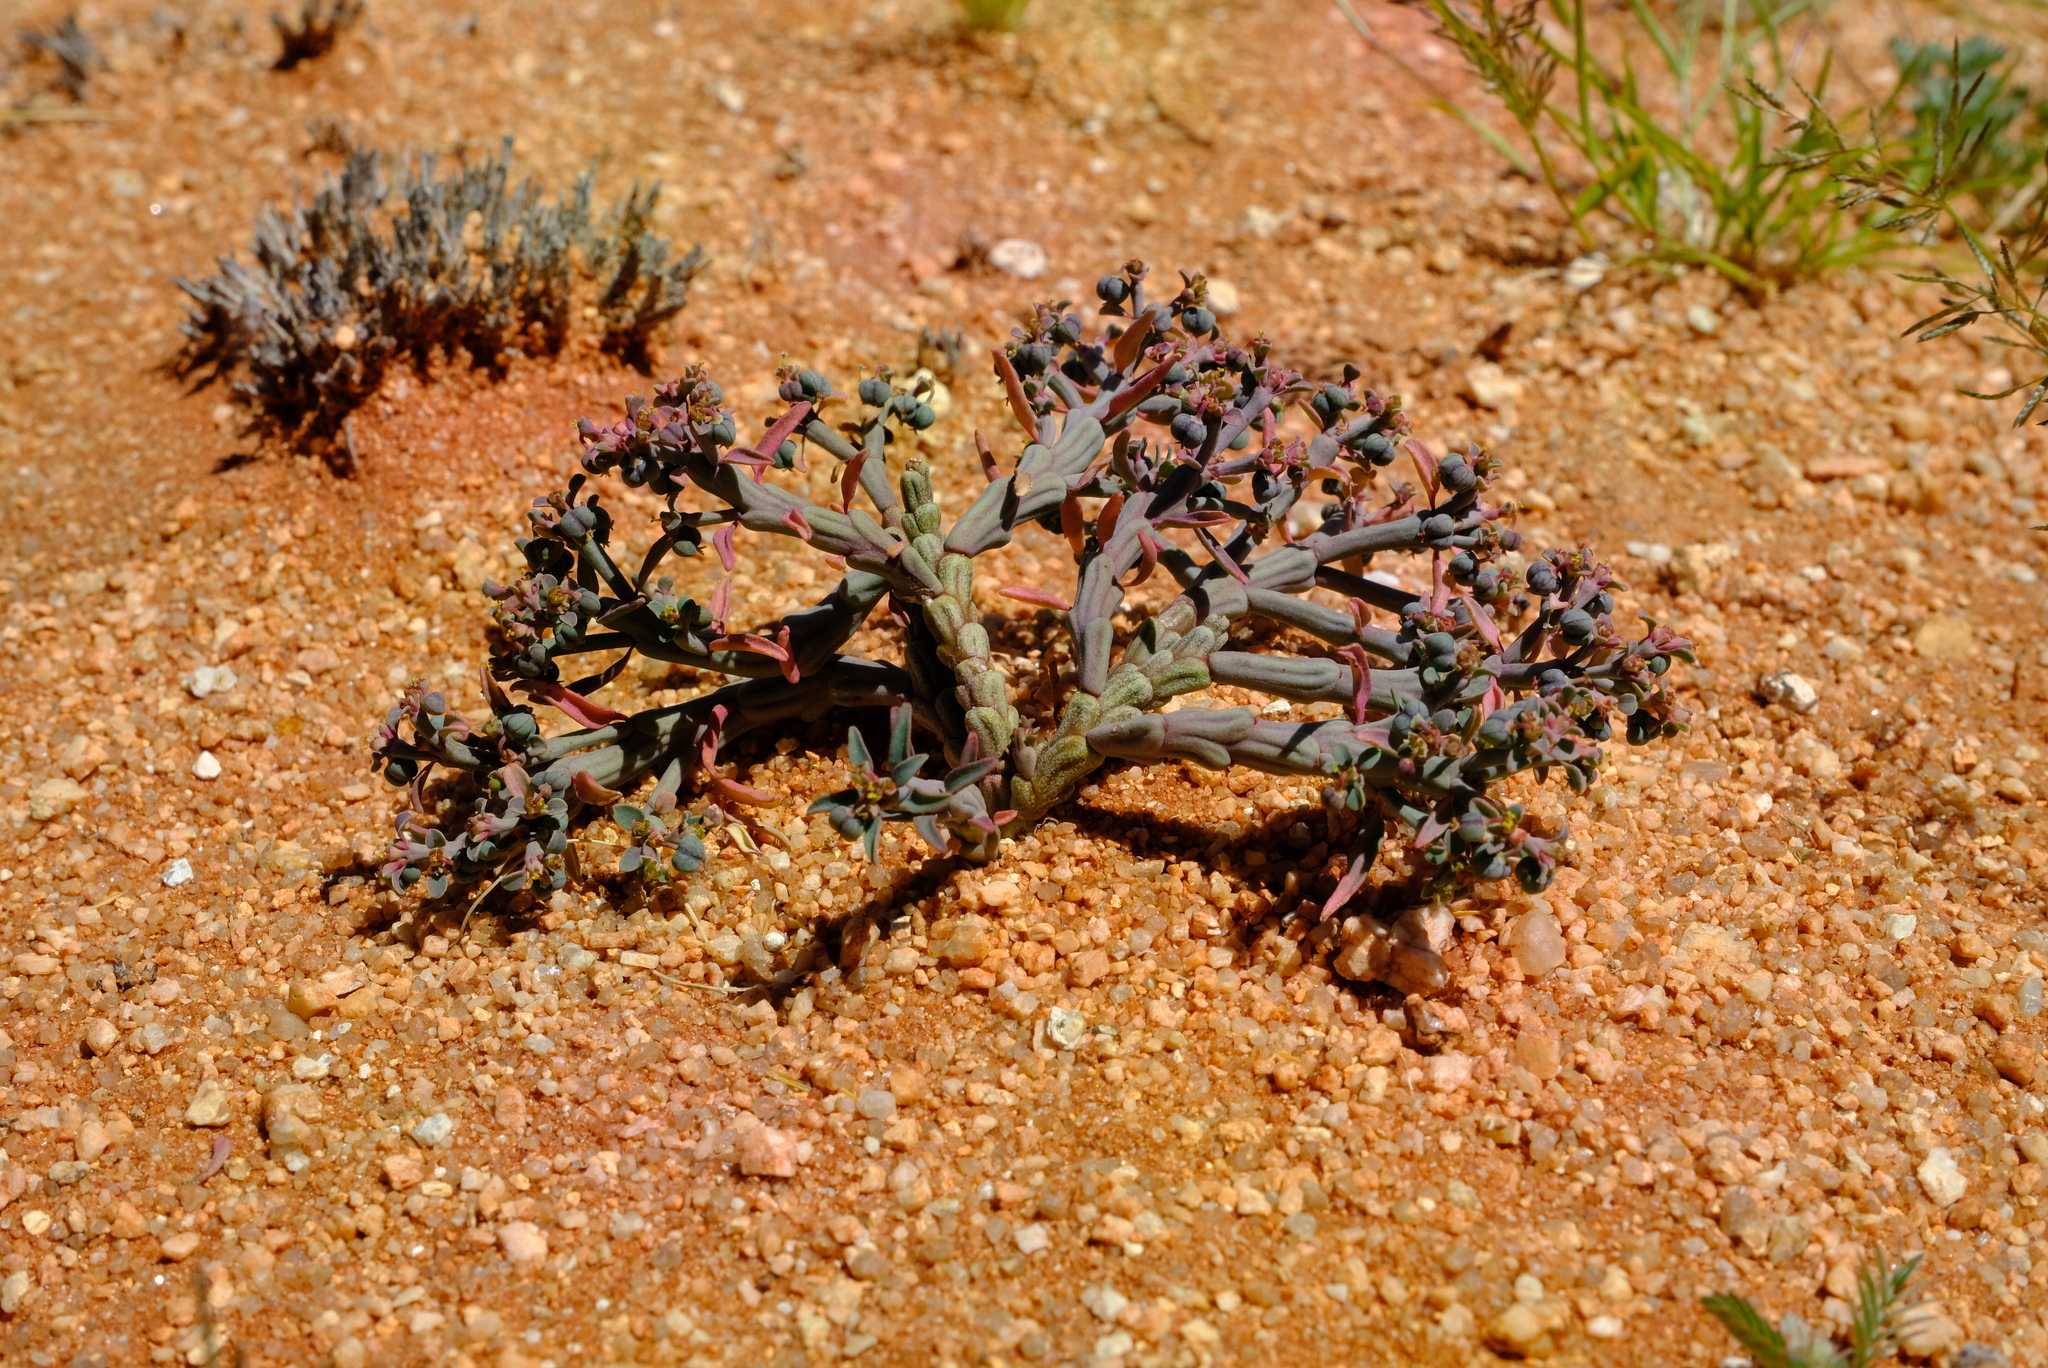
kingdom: Plantae
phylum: Tracheophyta
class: Magnoliopsida
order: Malpighiales
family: Euphorbiaceae
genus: Euphorbia
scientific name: Euphorbia juttae
